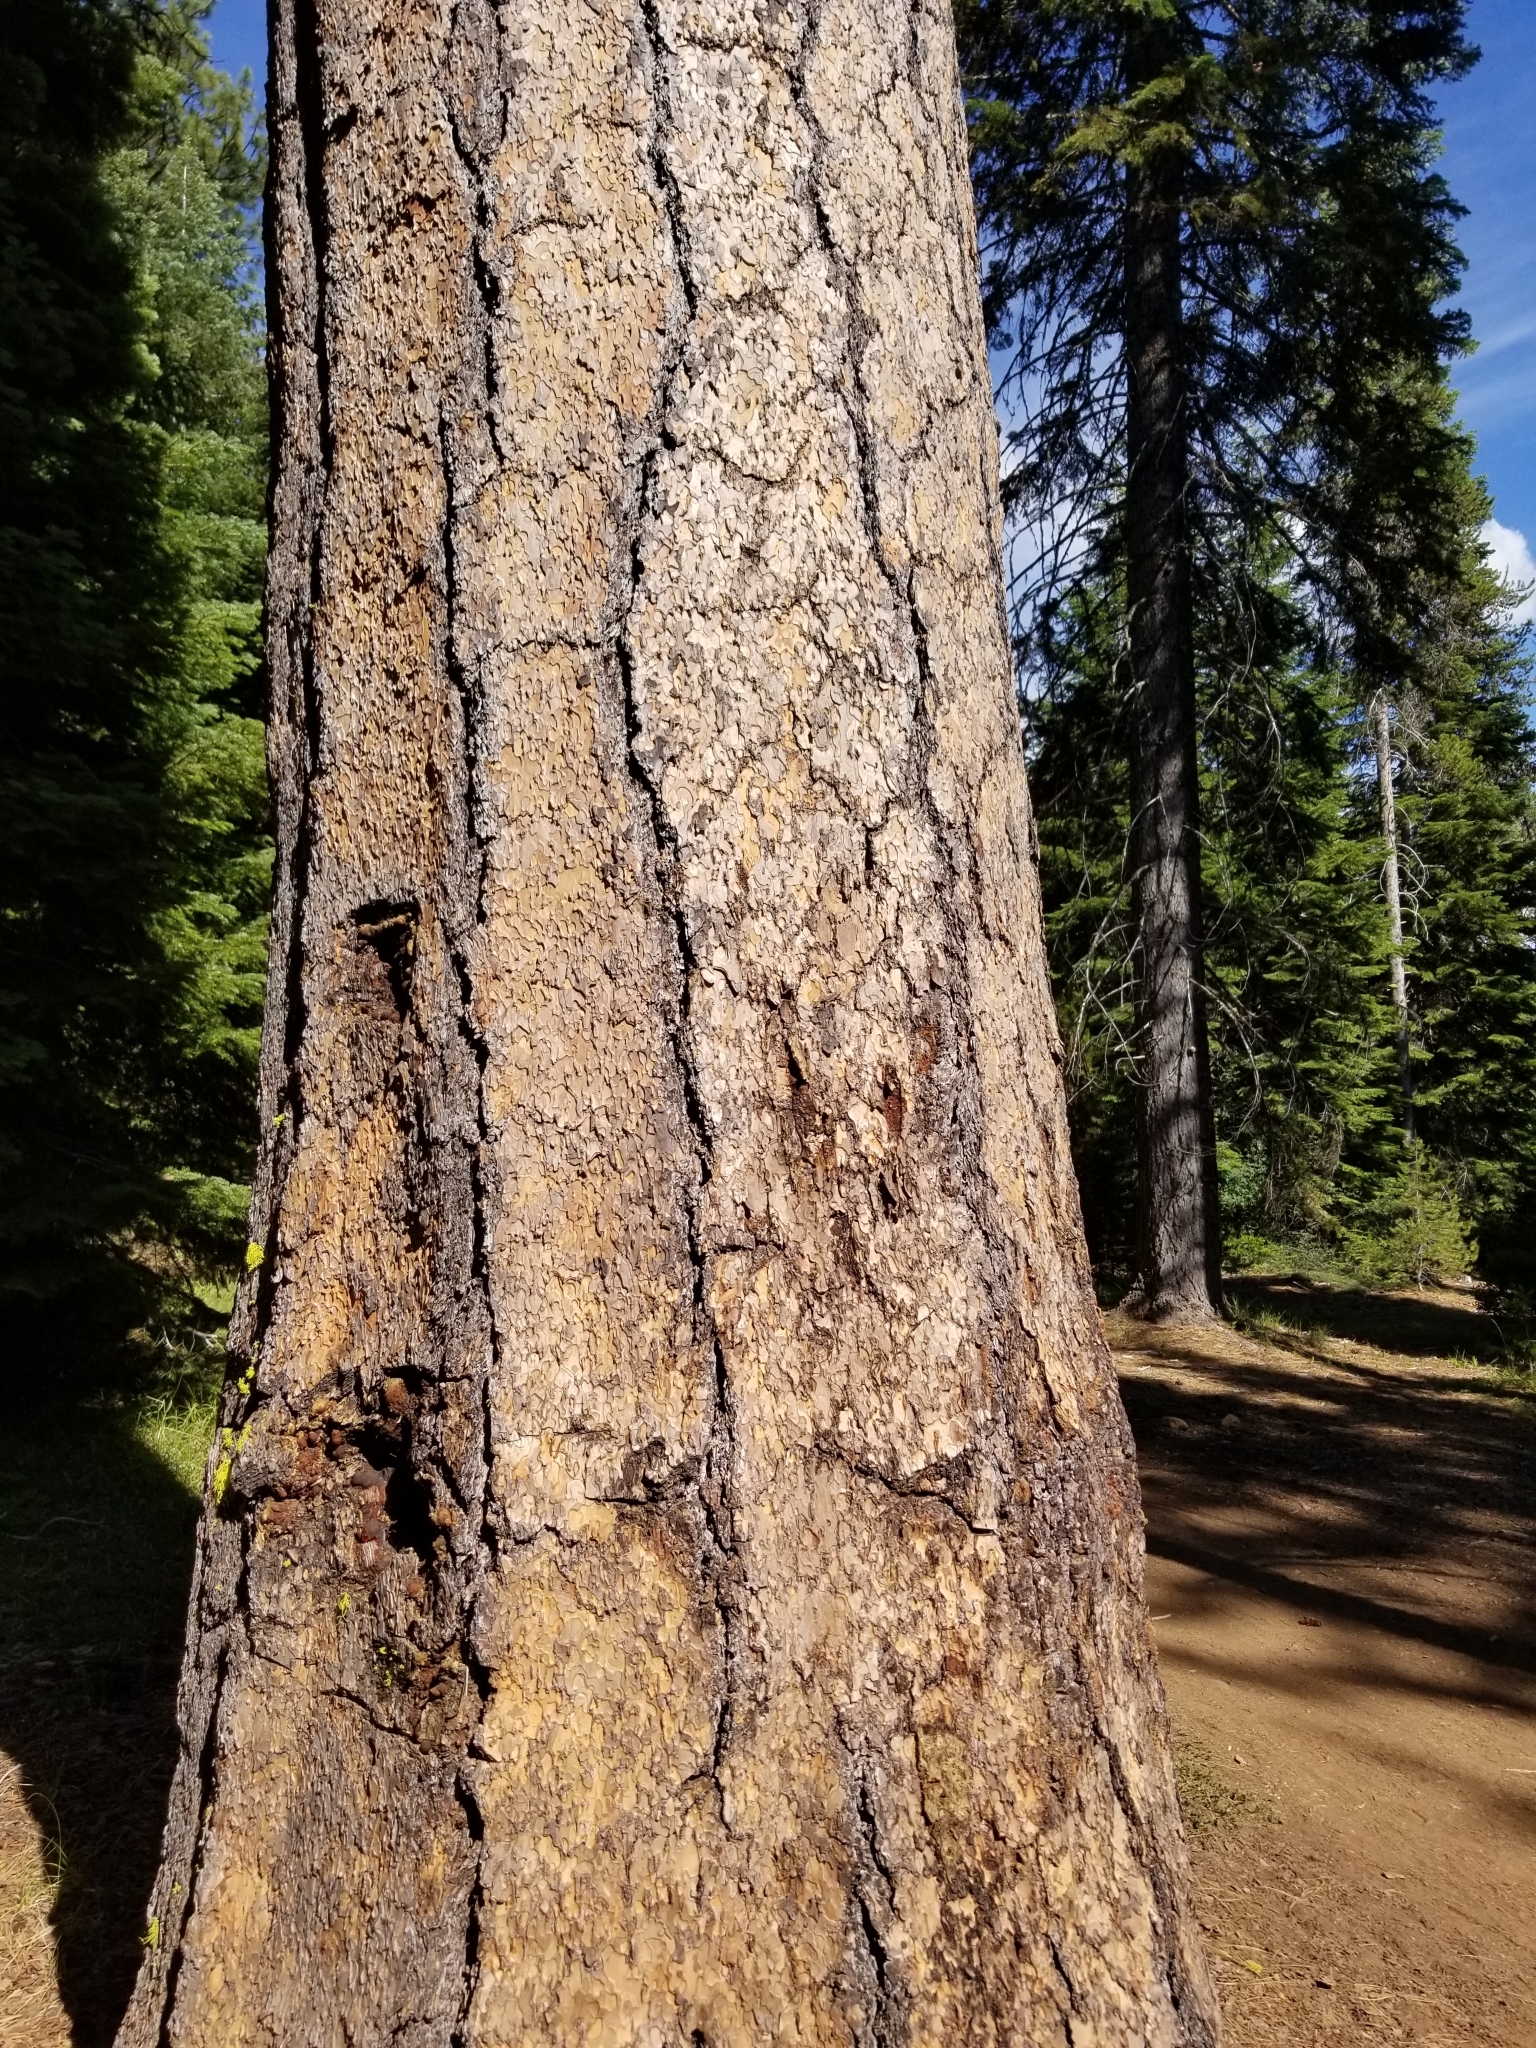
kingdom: Plantae
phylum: Tracheophyta
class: Pinopsida
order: Pinales
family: Pinaceae
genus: Pinus
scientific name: Pinus ponderosa
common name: Western yellow-pine
